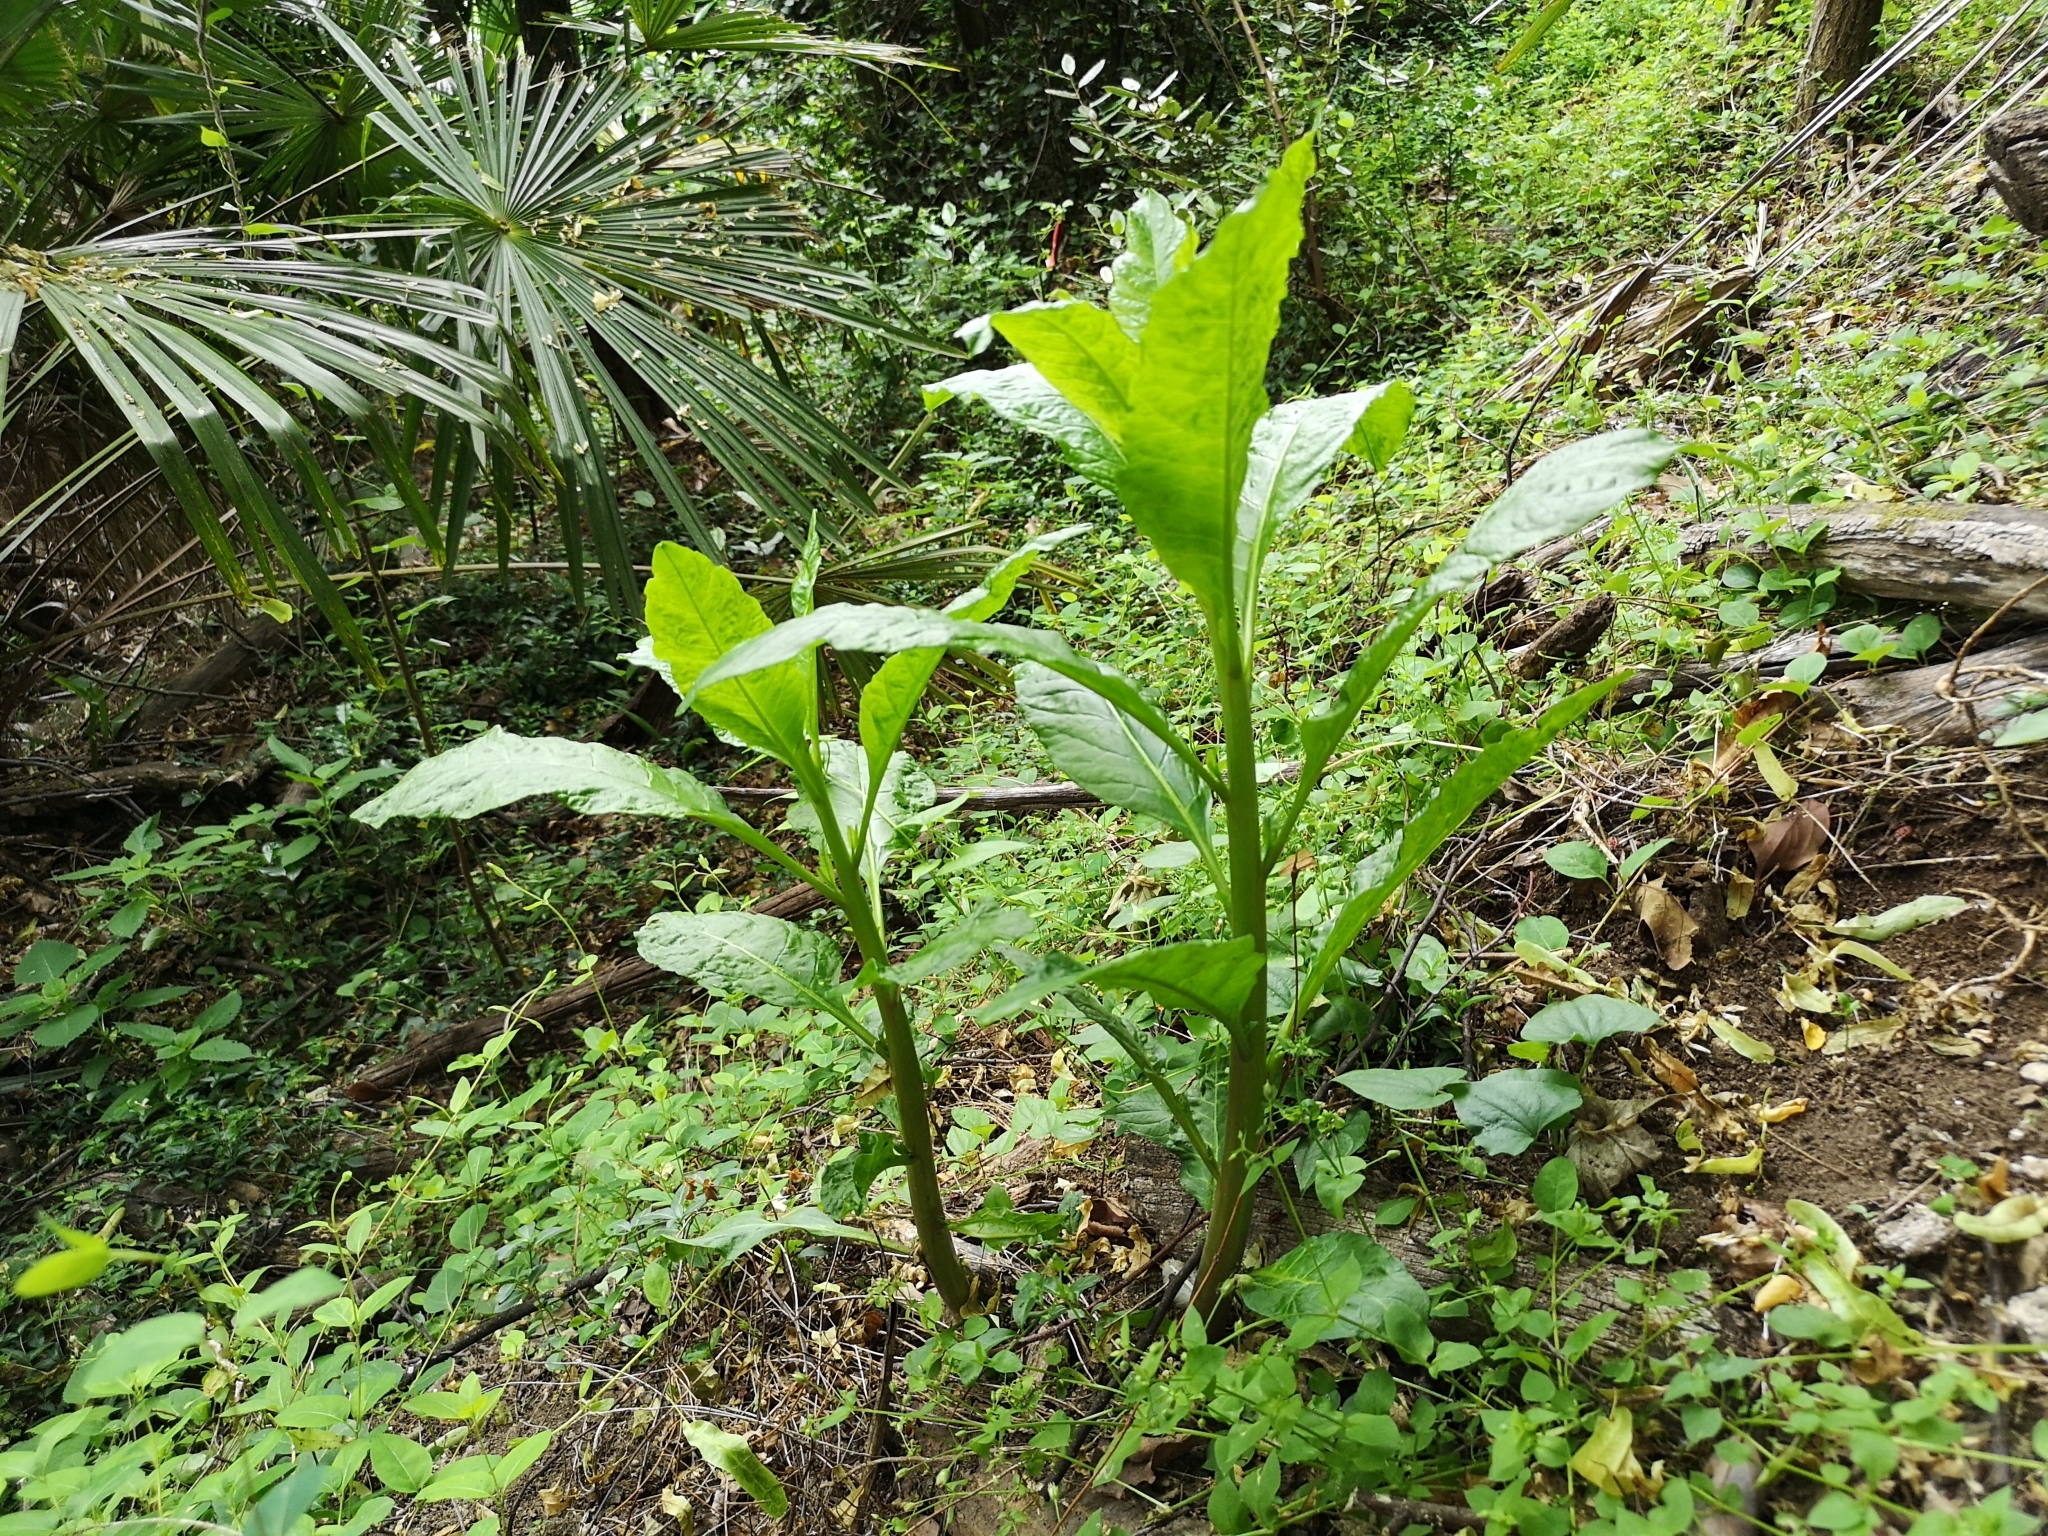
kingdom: Plantae
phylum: Tracheophyta
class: Magnoliopsida
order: Caryophyllales
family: Phytolaccaceae
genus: Phytolacca
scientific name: Phytolacca americana
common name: American pokeweed
